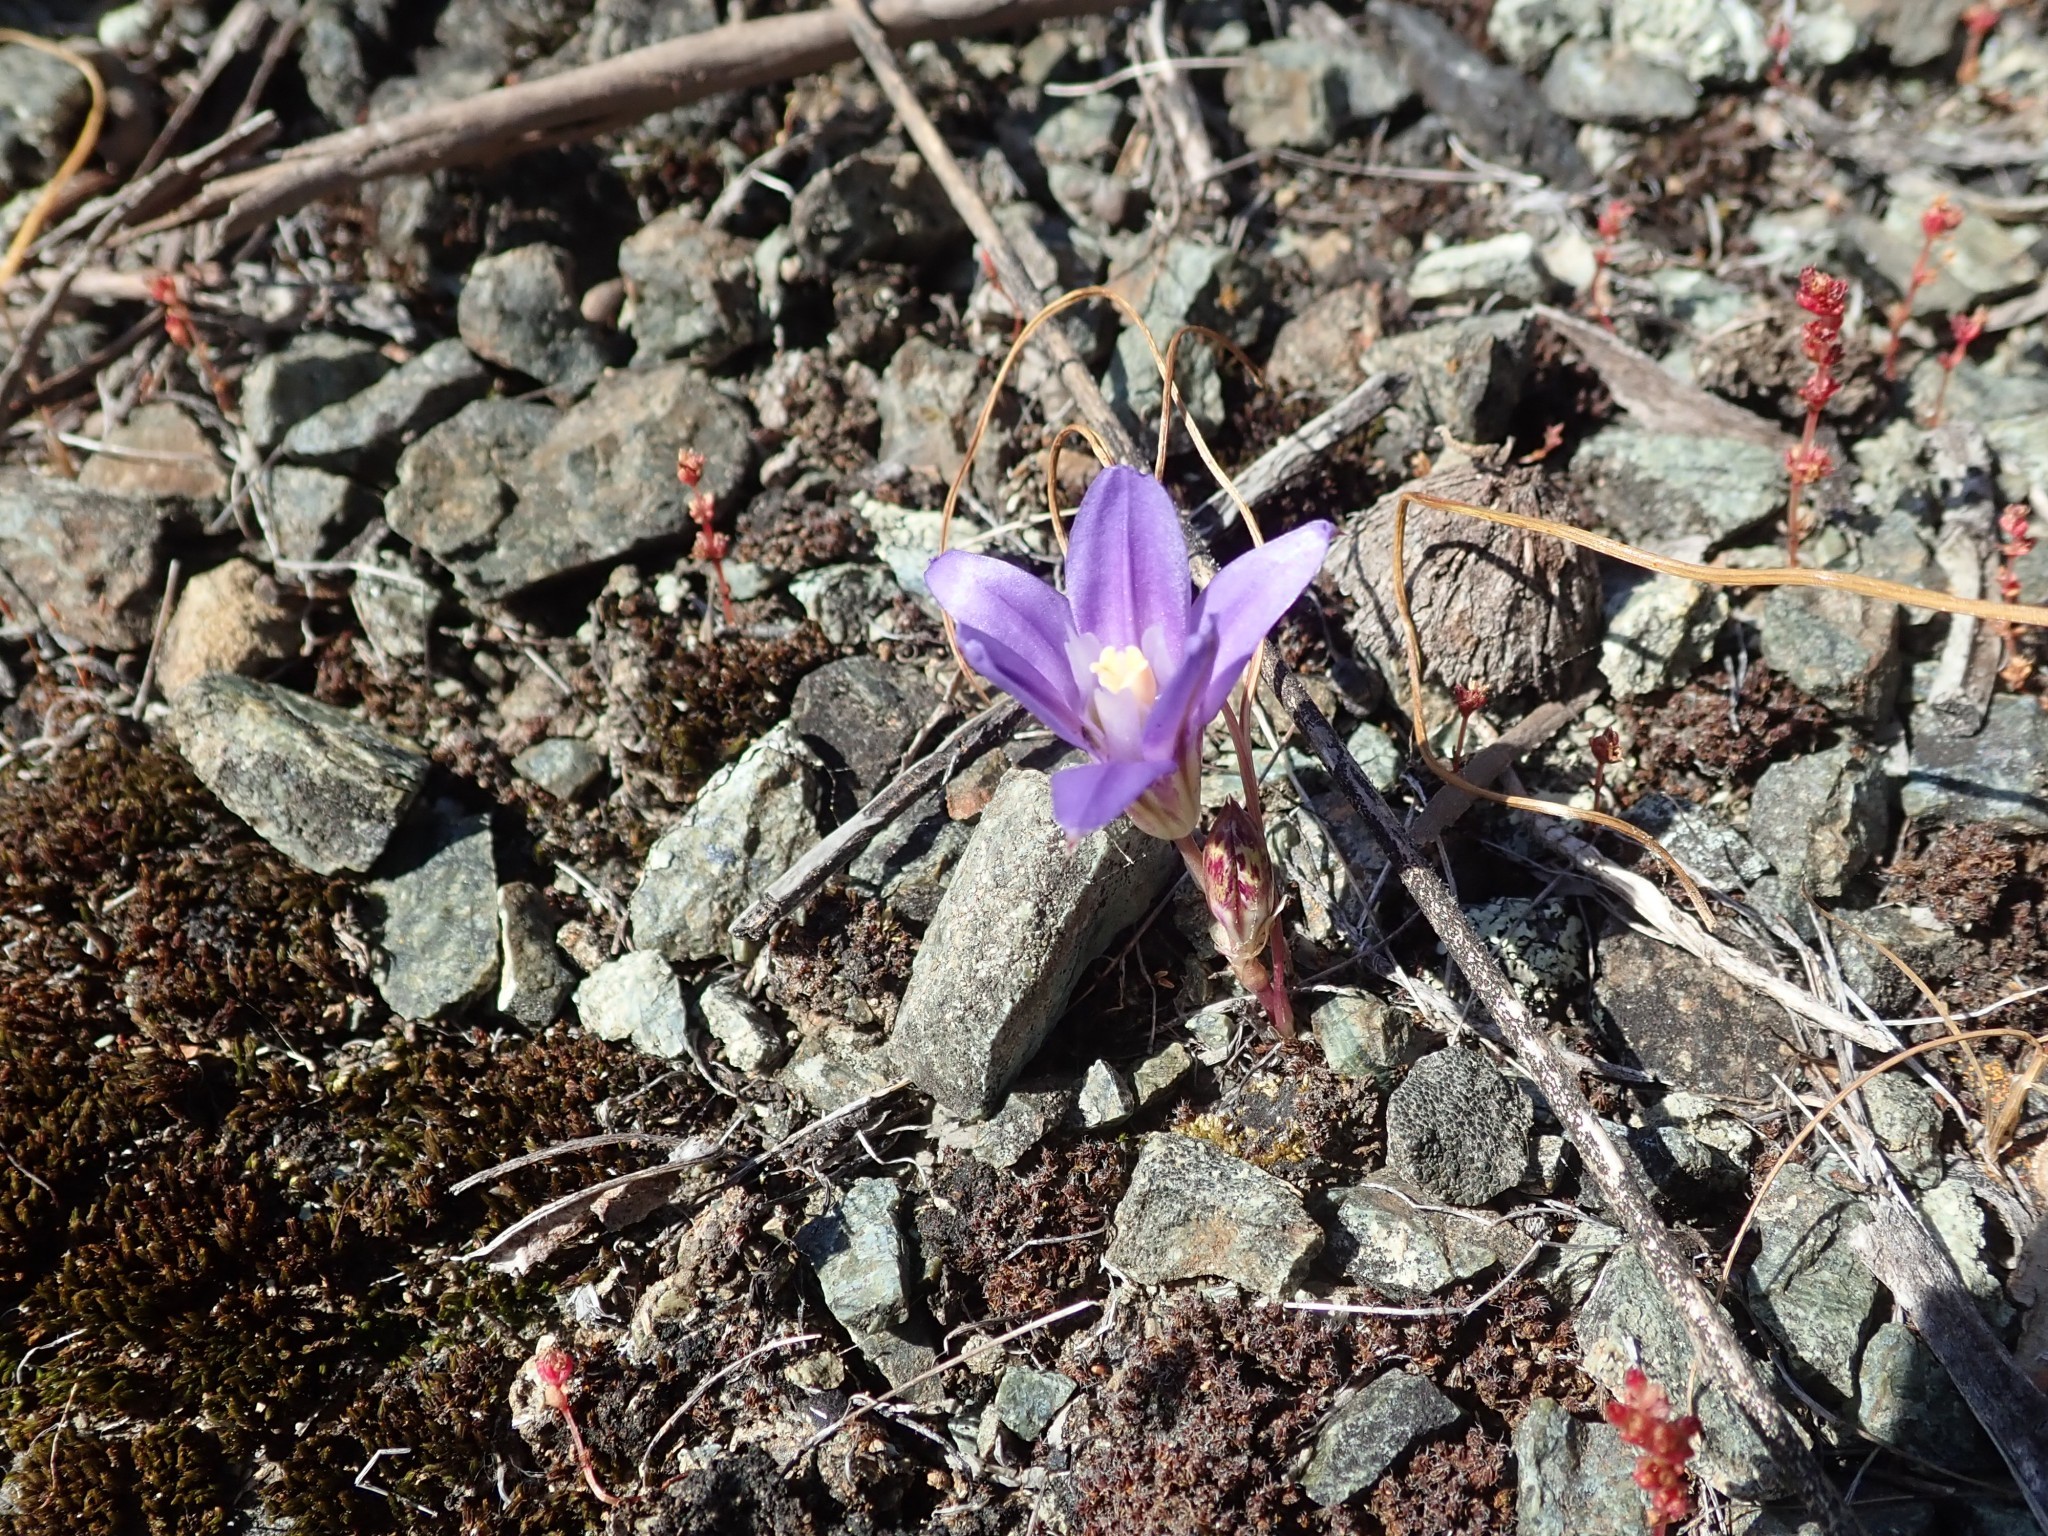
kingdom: Plantae
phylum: Tracheophyta
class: Liliopsida
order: Asparagales
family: Asparagaceae
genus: Brodiaea
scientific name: Brodiaea terrestris
